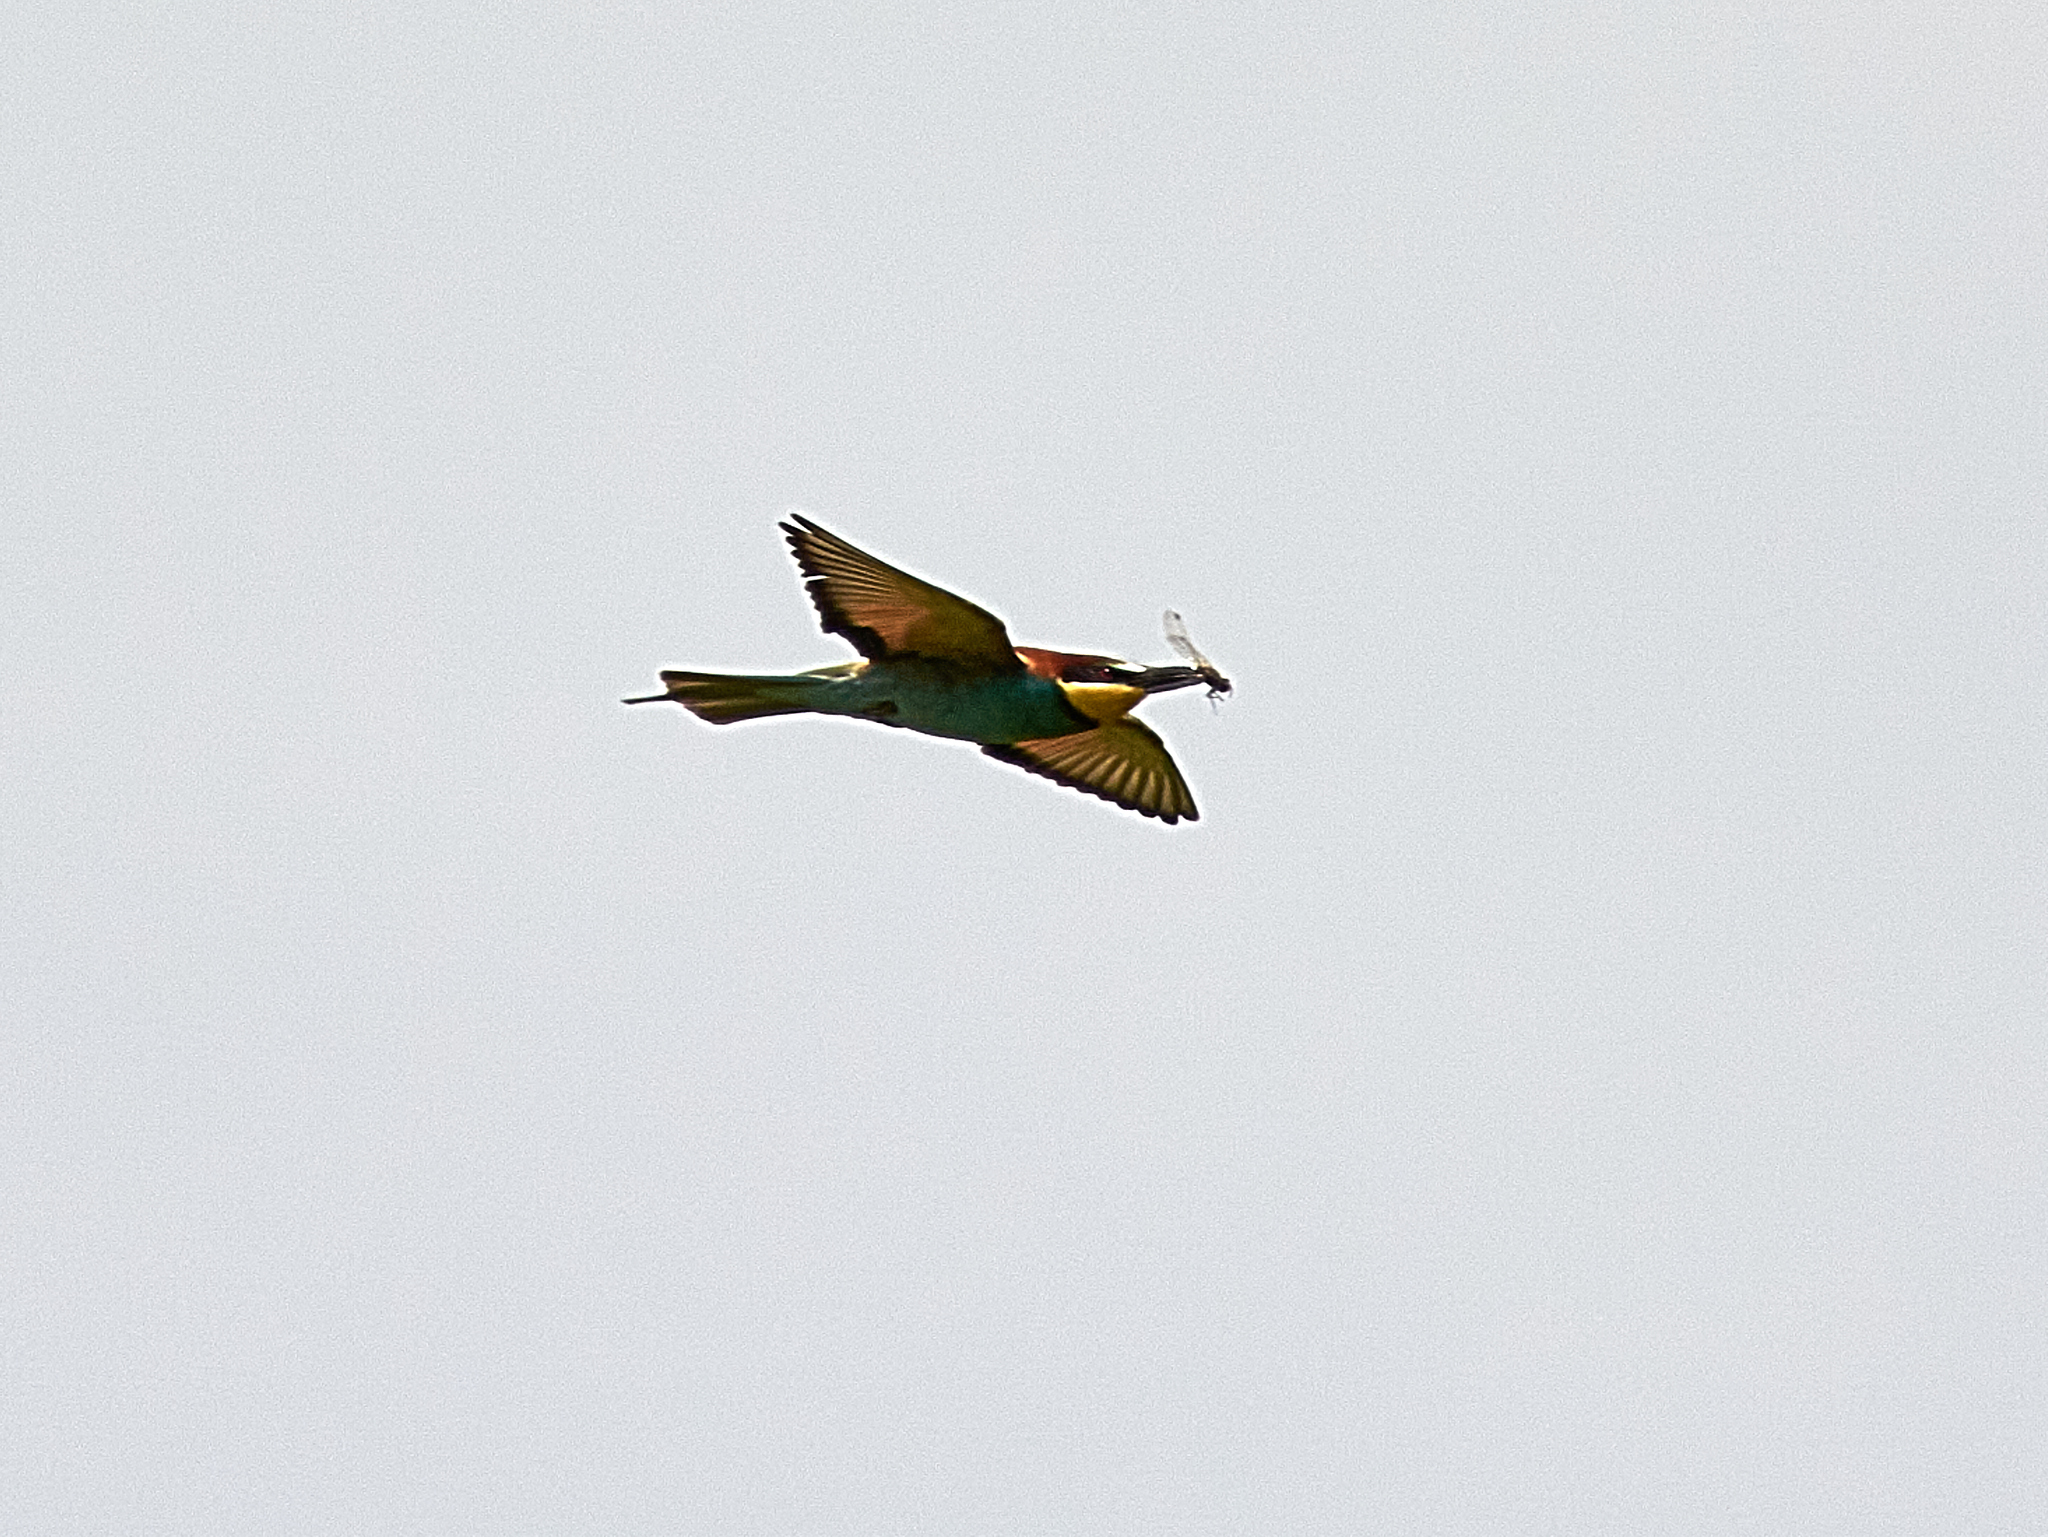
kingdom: Animalia
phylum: Chordata
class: Aves
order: Coraciiformes
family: Meropidae
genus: Merops
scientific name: Merops apiaster
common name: European bee-eater
